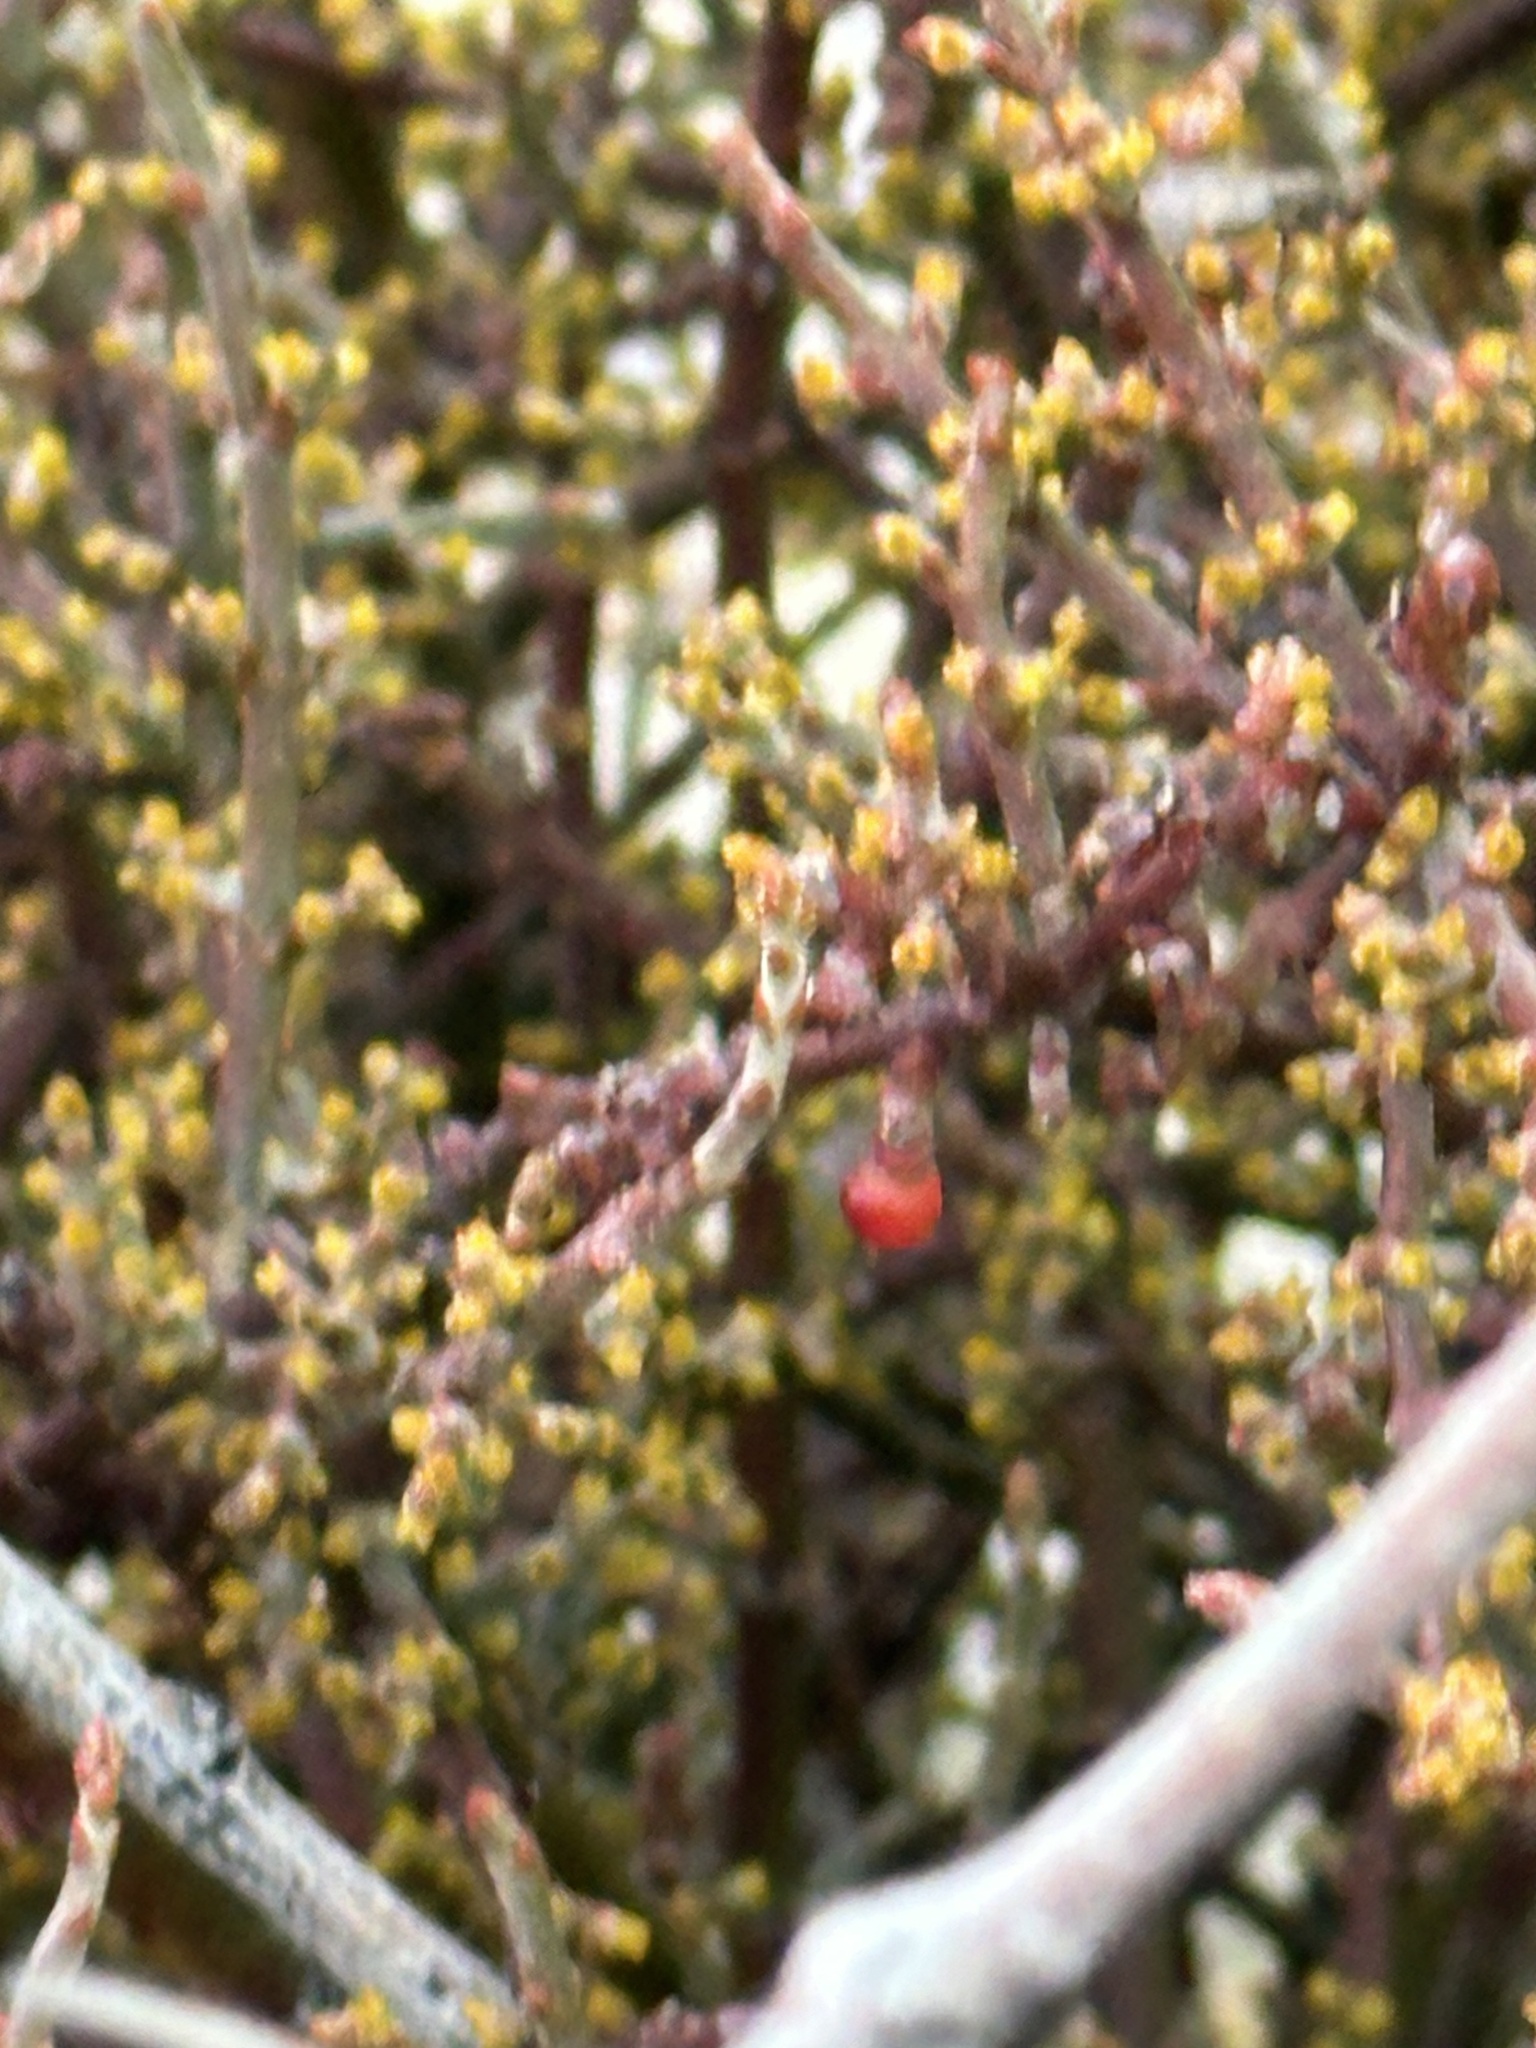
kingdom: Plantae
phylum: Tracheophyta
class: Magnoliopsida
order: Santalales
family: Viscaceae
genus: Phoradendron
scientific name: Phoradendron californicum
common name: Acacia mistletoe
